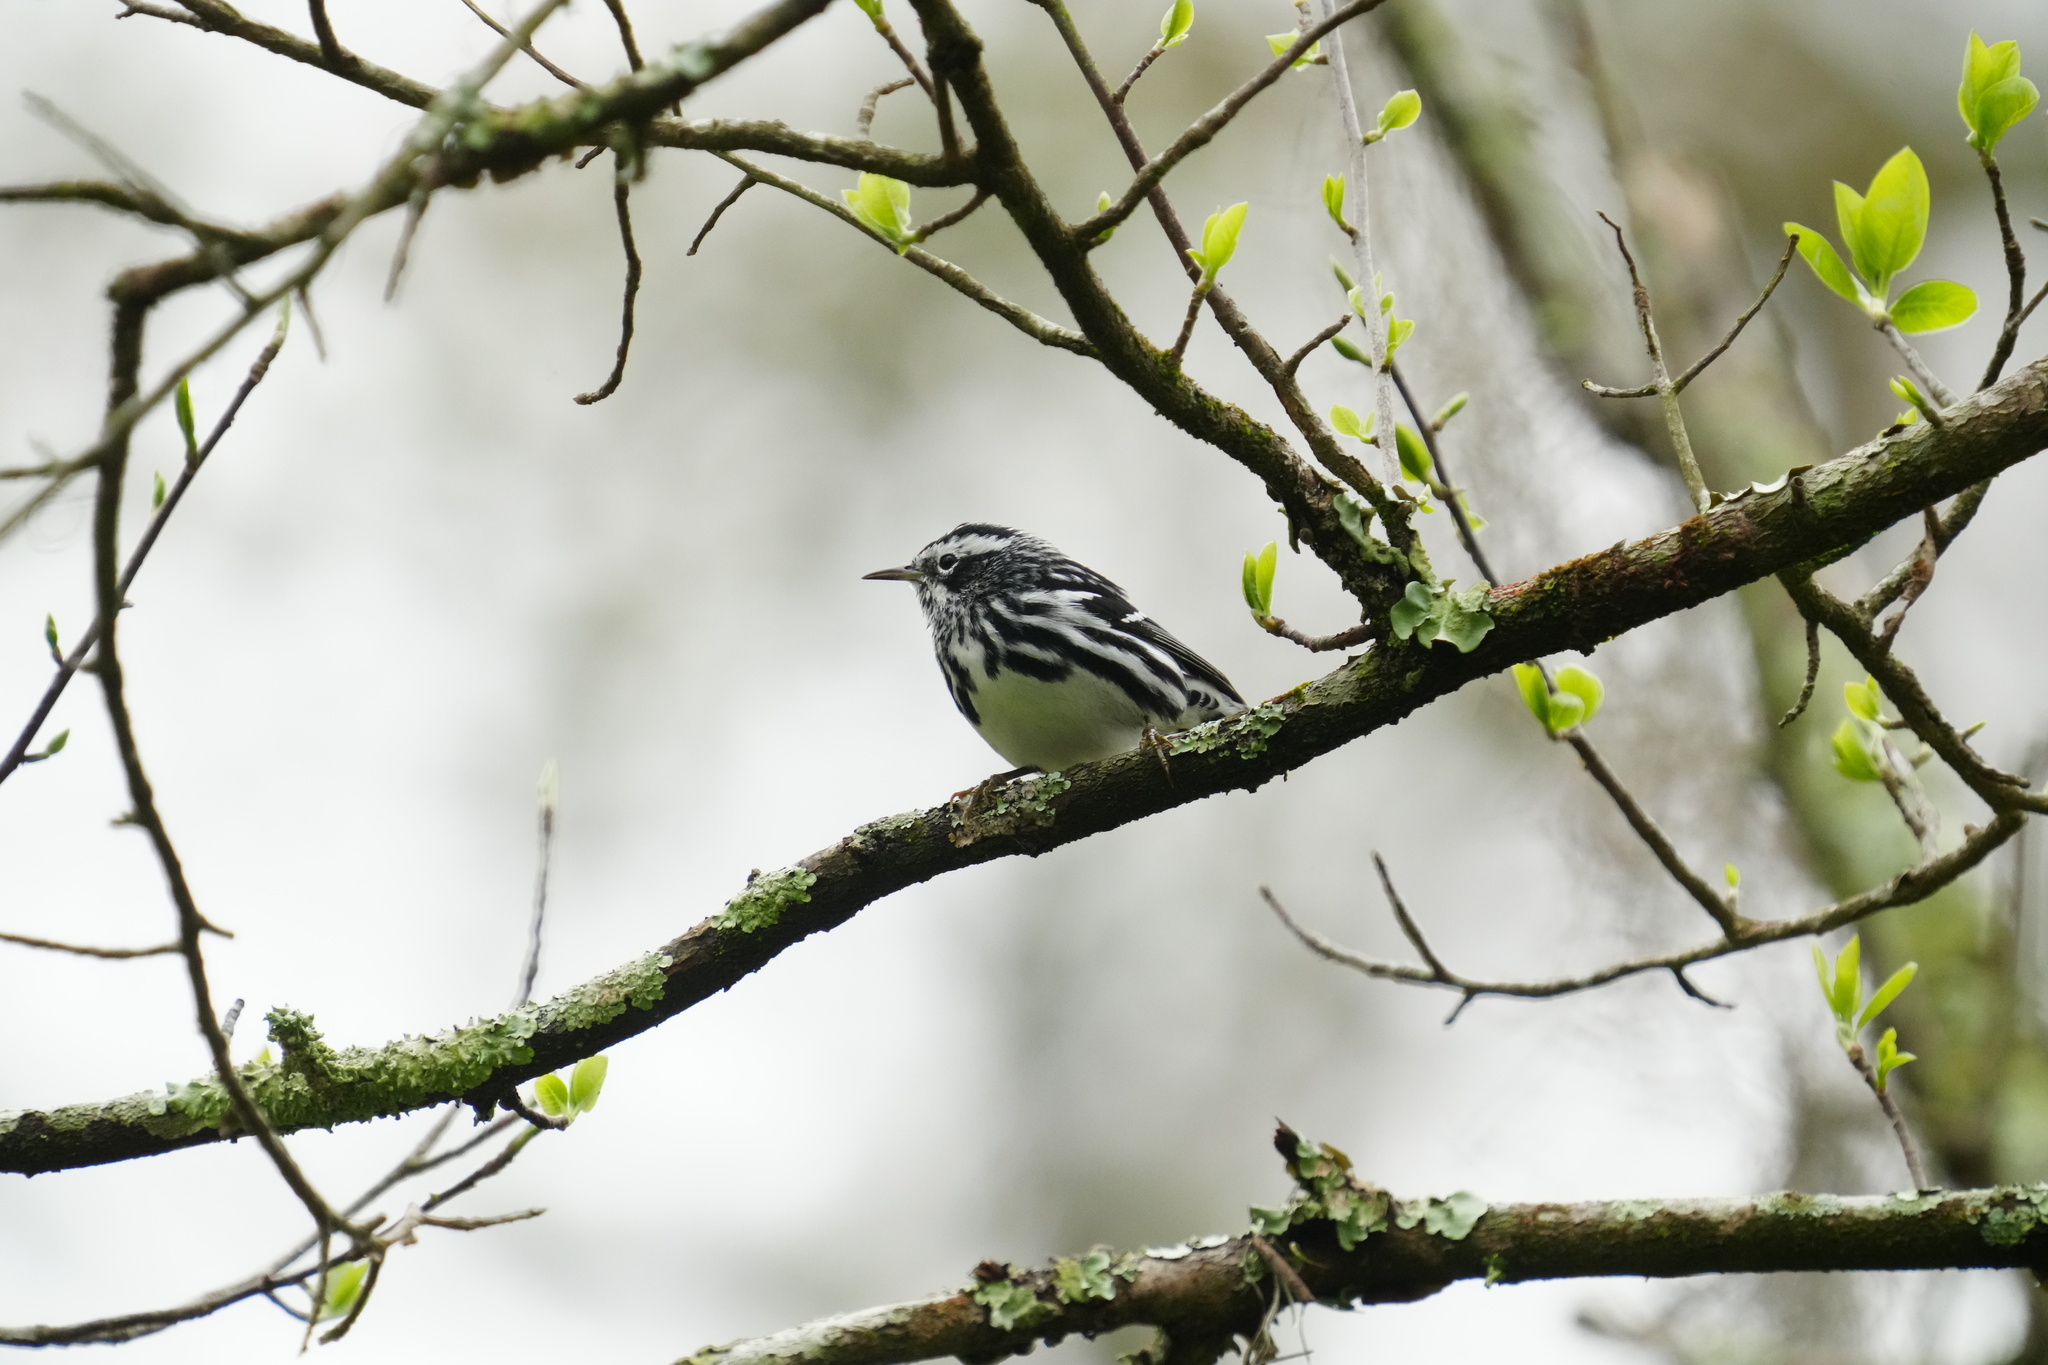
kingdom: Animalia
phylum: Chordata
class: Aves
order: Passeriformes
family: Parulidae
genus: Mniotilta
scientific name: Mniotilta varia
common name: Black-and-white warbler
